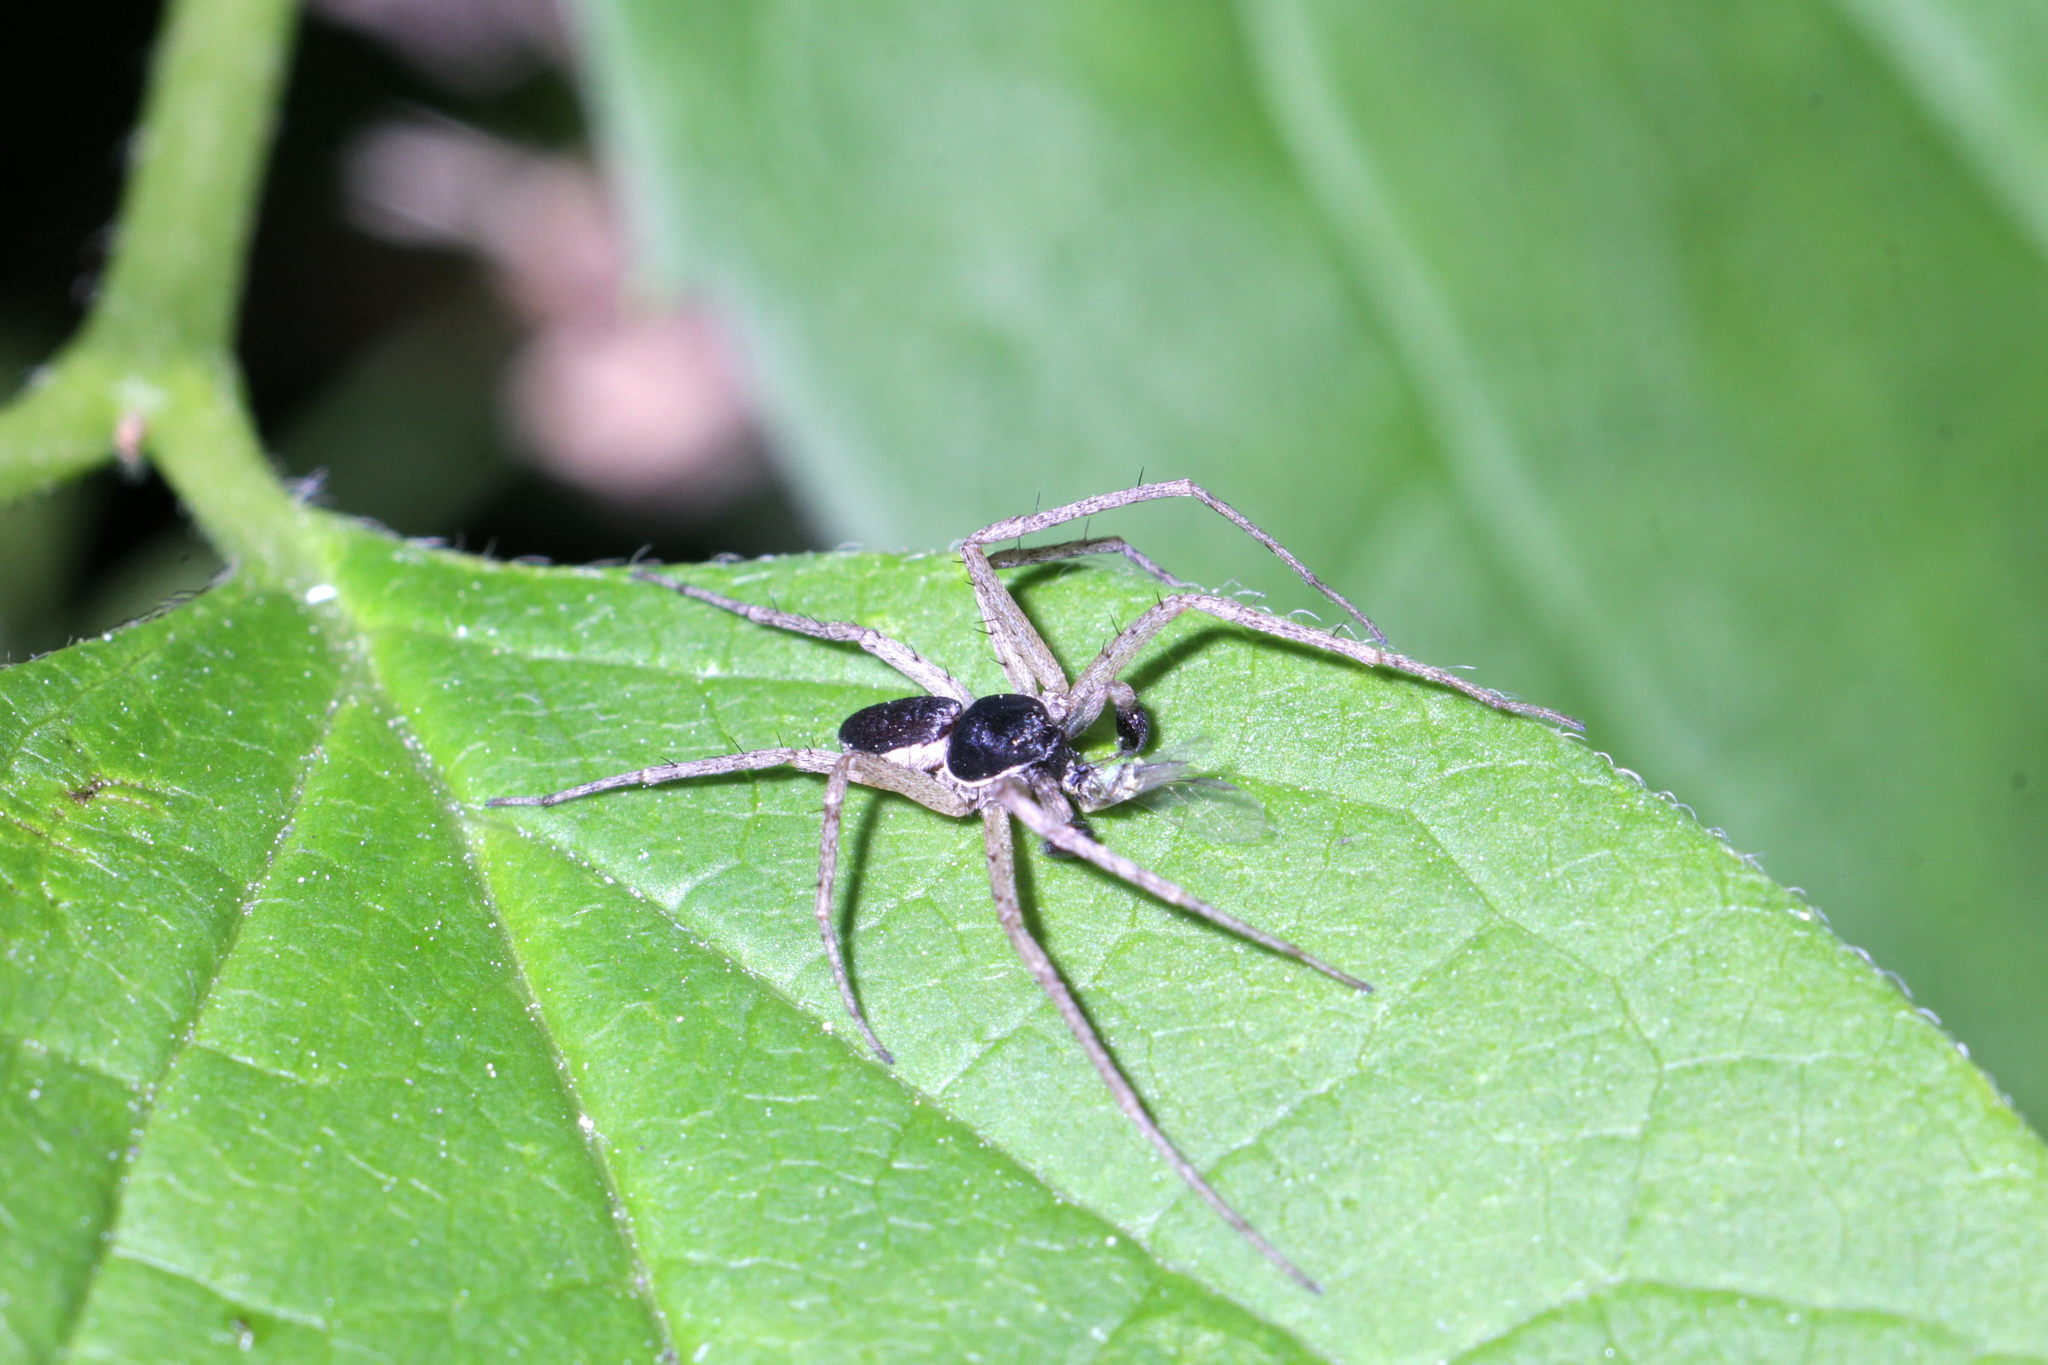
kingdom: Animalia
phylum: Arthropoda
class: Arachnida
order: Araneae
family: Philodromidae
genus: Philodromus
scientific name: Philodromus dispar
